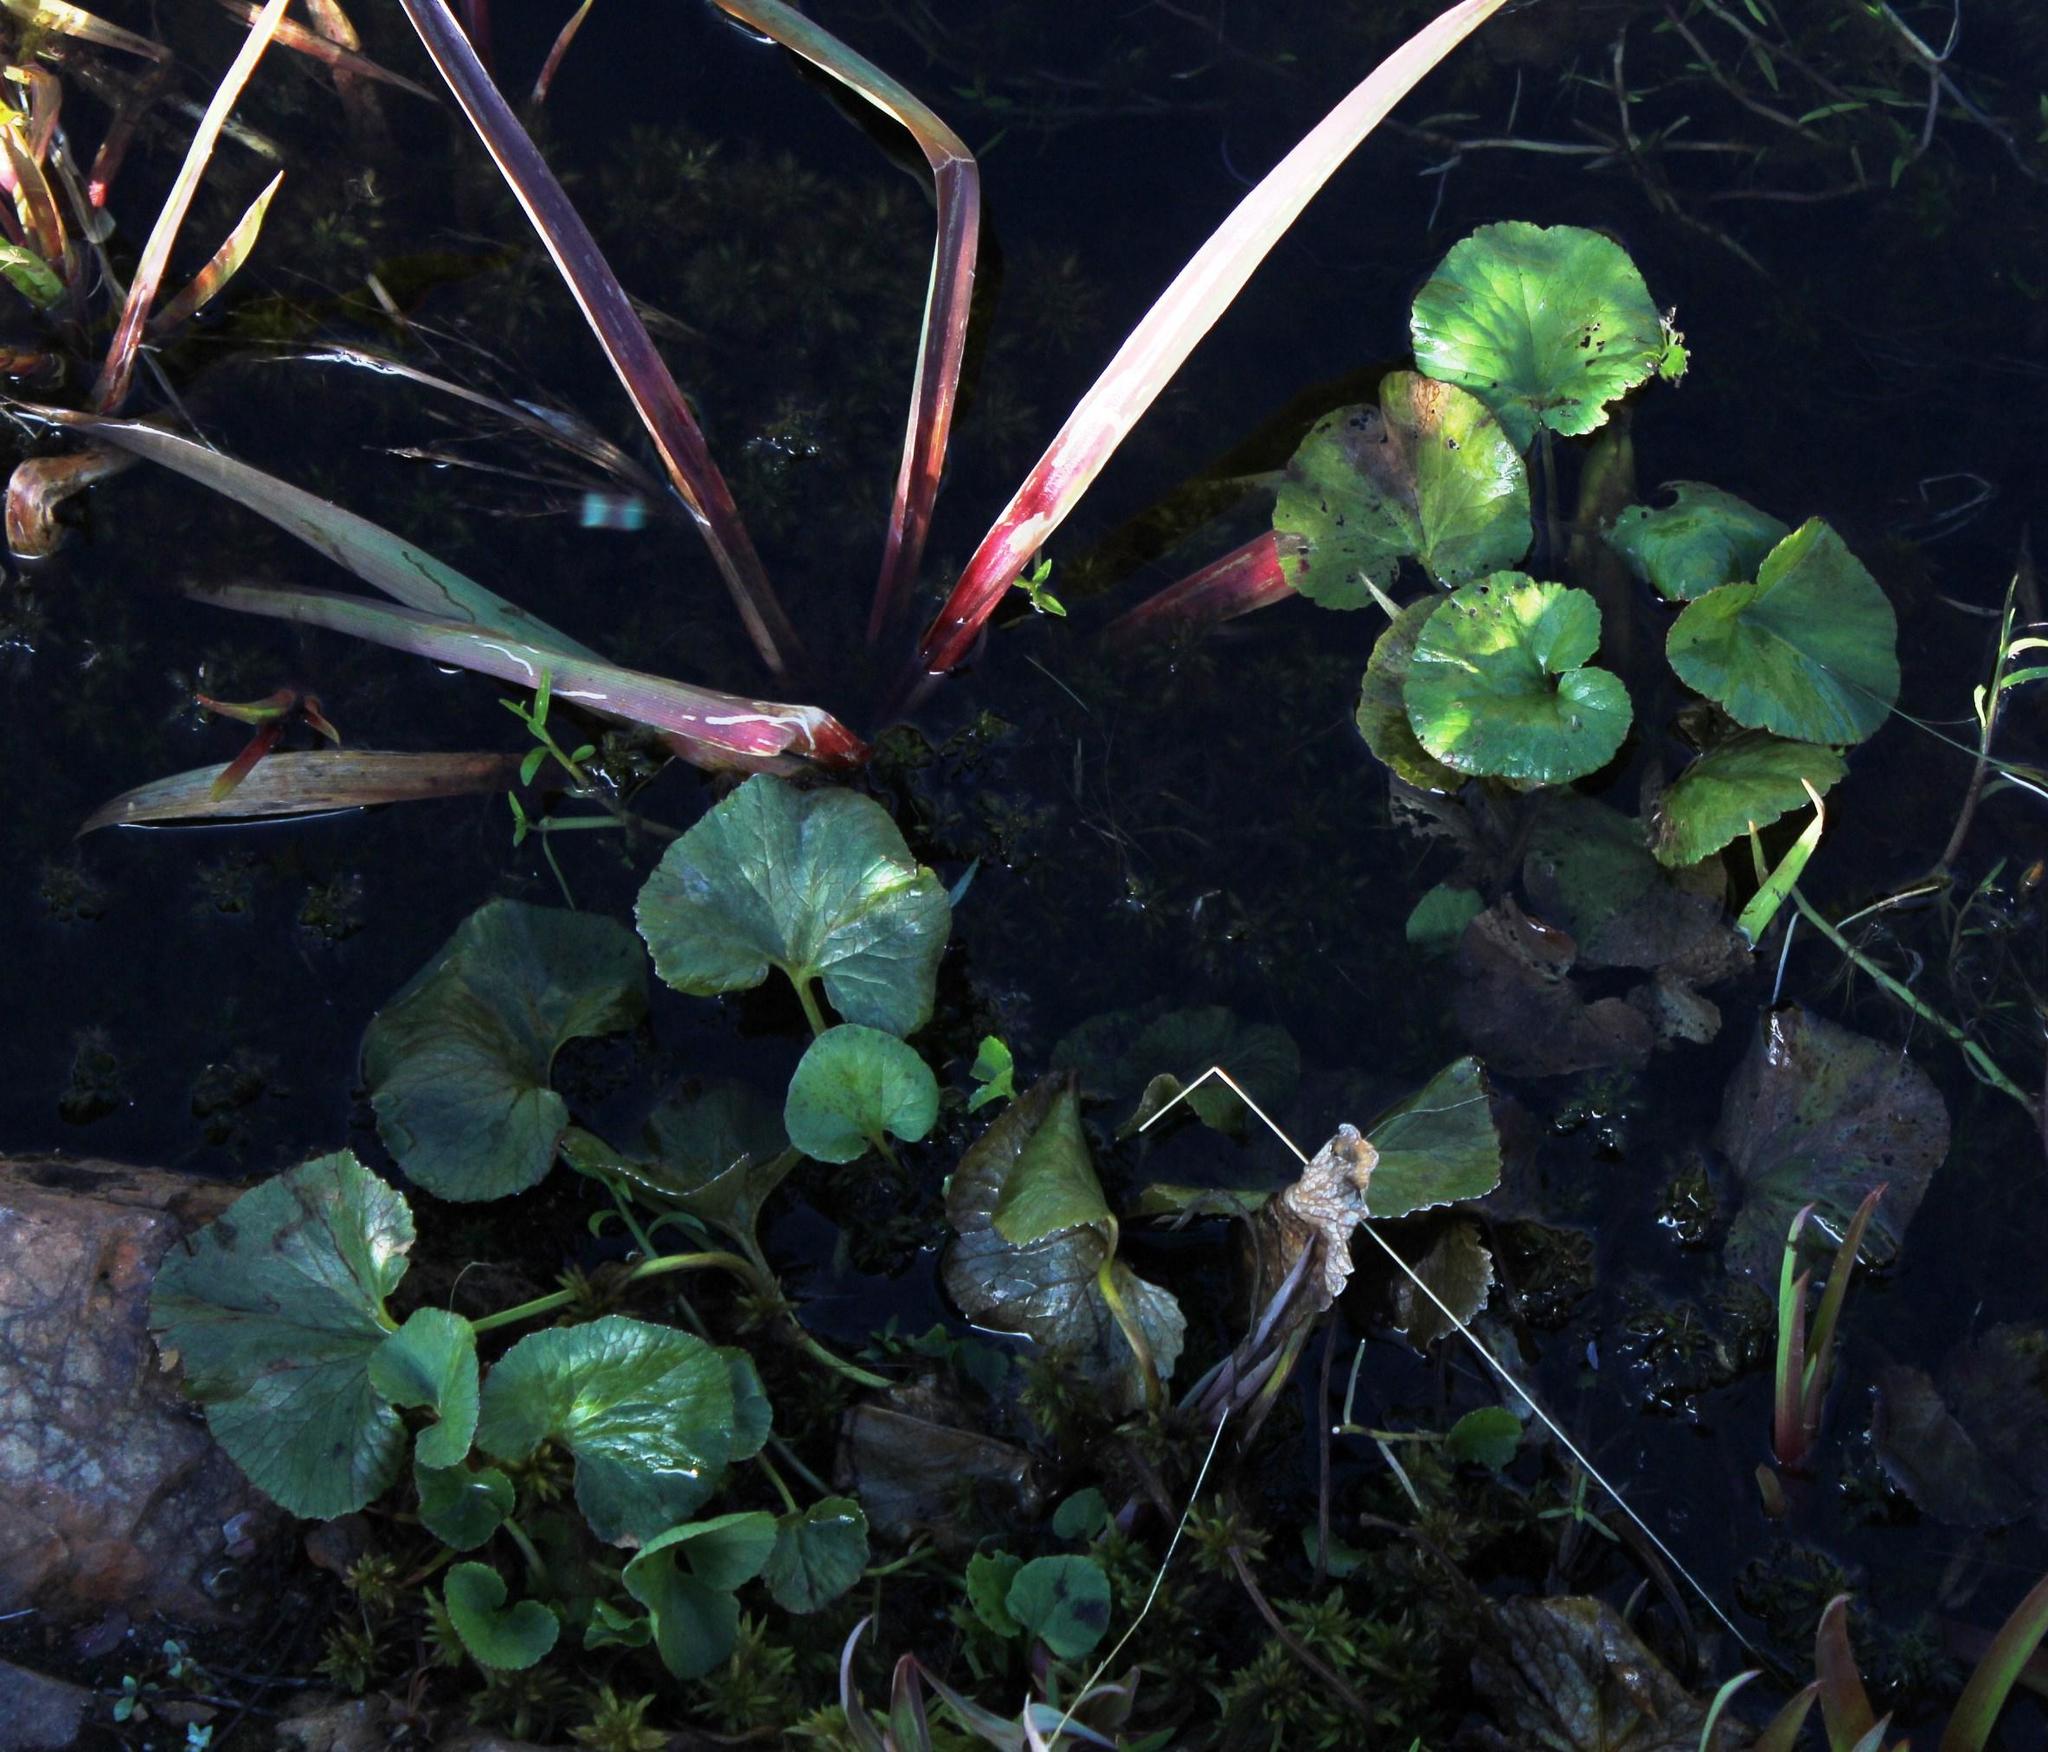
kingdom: Plantae
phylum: Tracheophyta
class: Magnoliopsida
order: Gunnerales
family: Gunneraceae
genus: Gunnera
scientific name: Gunnera perpensa
